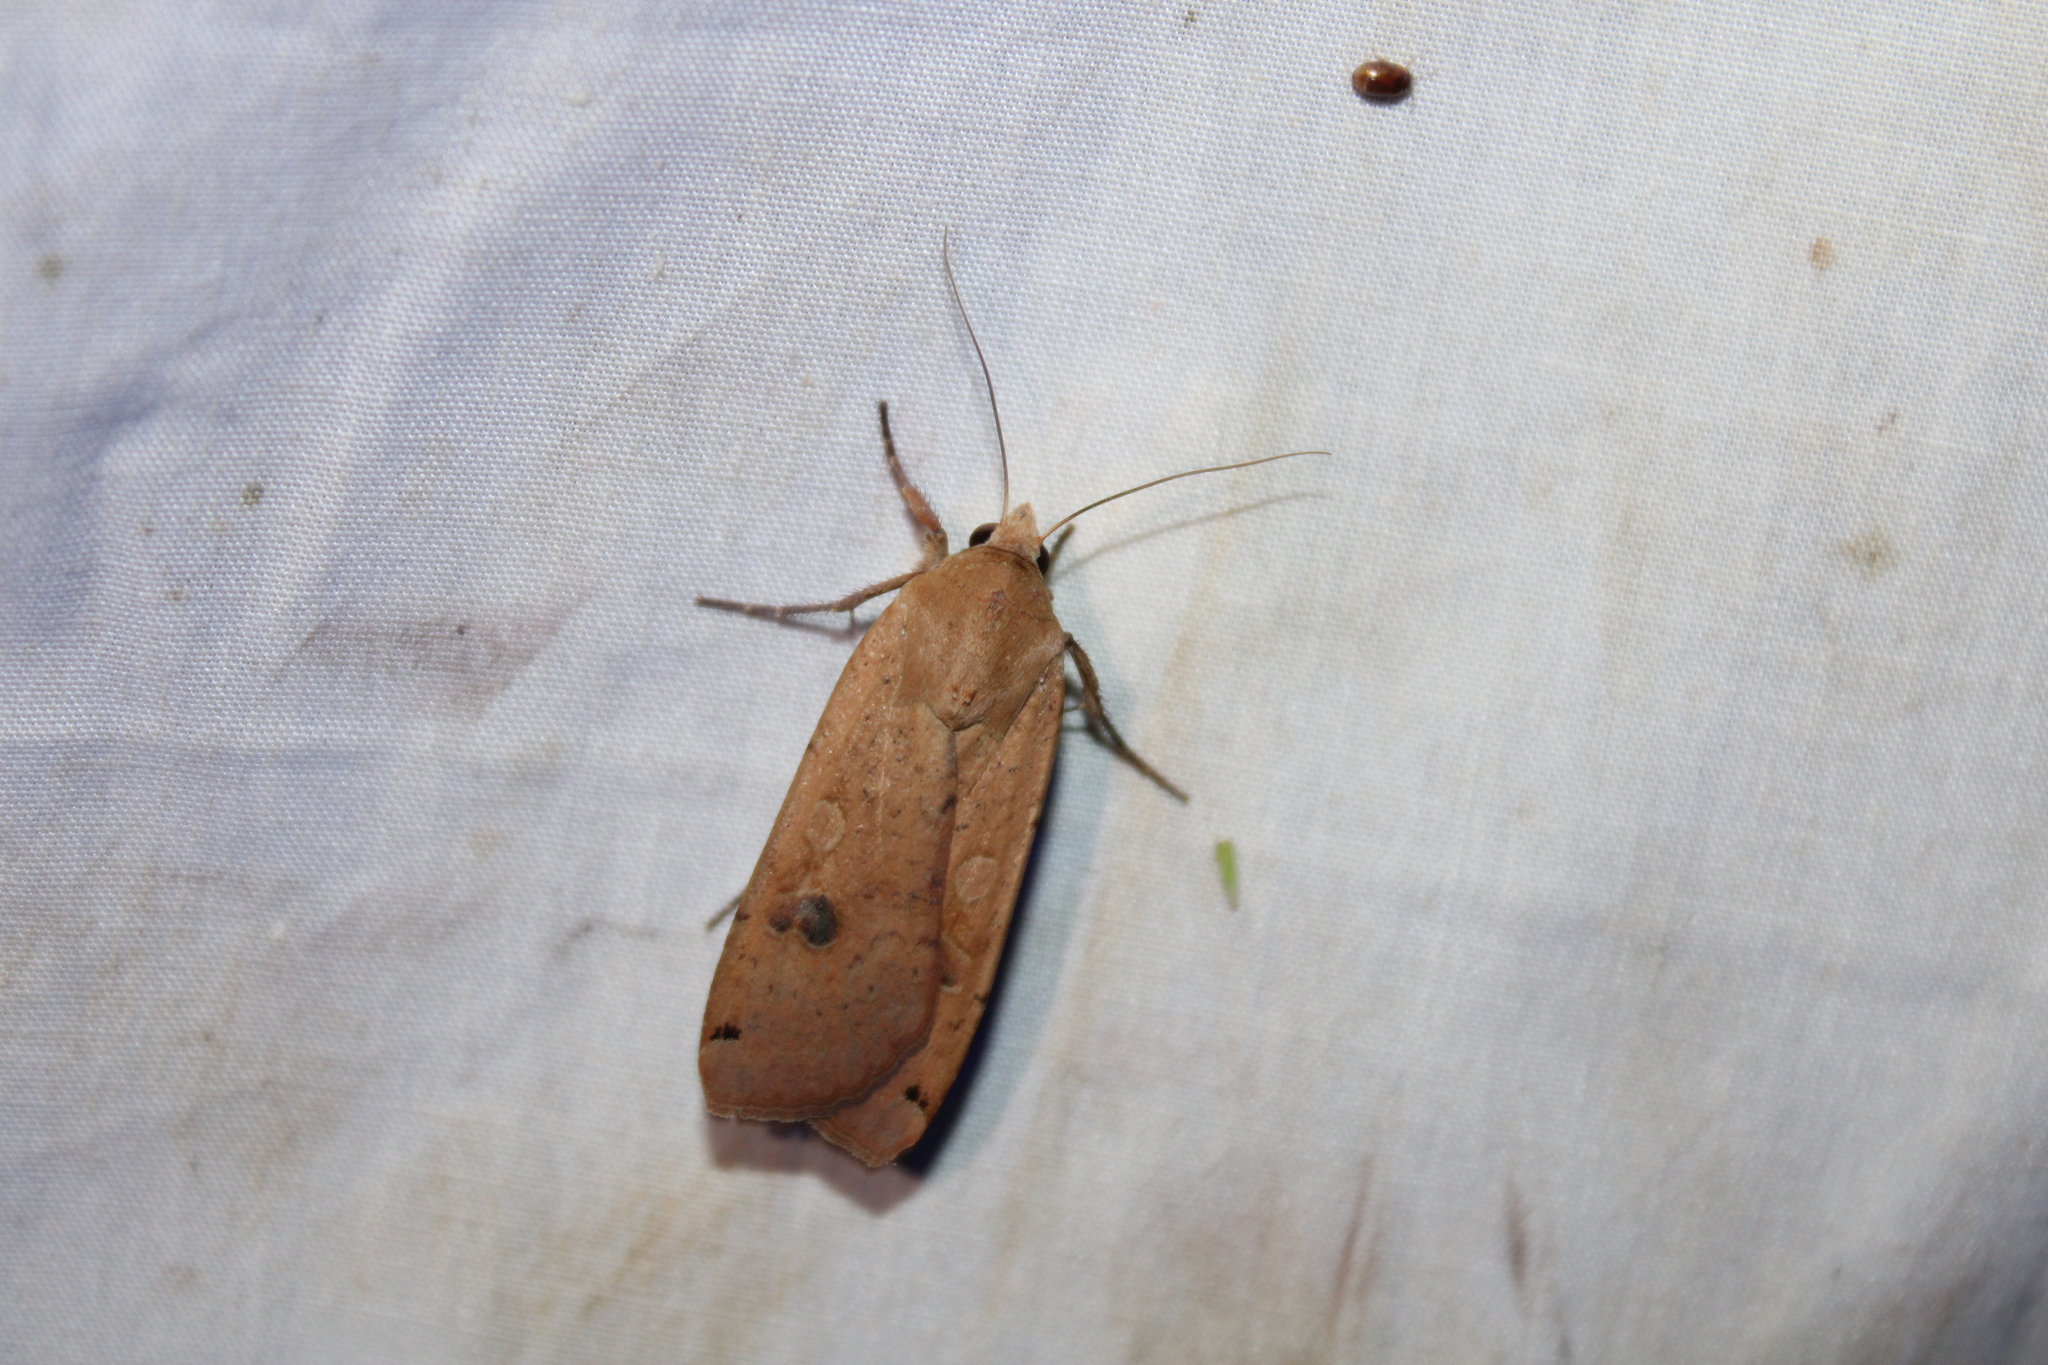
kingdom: Animalia
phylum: Arthropoda
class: Insecta
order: Lepidoptera
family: Noctuidae
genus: Noctua
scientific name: Noctua pronuba
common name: Large yellow underwing
